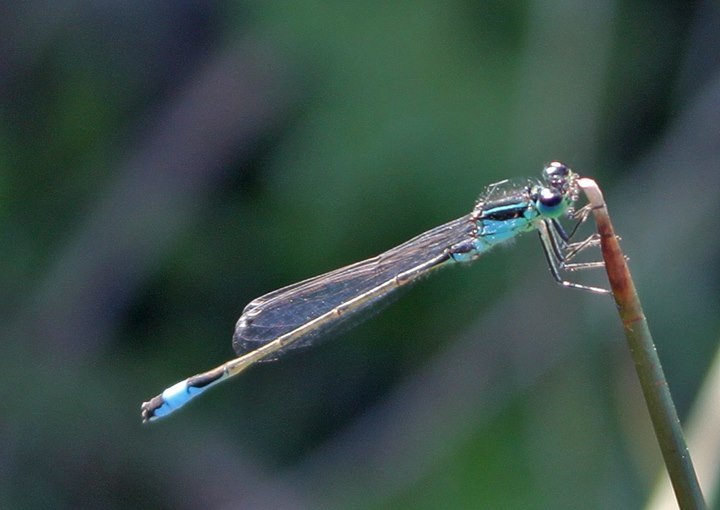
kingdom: Animalia
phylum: Arthropoda
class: Insecta
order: Odonata
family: Coenagrionidae
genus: Ischnura
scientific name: Ischnura elegans
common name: Blue-tailed damselfly
